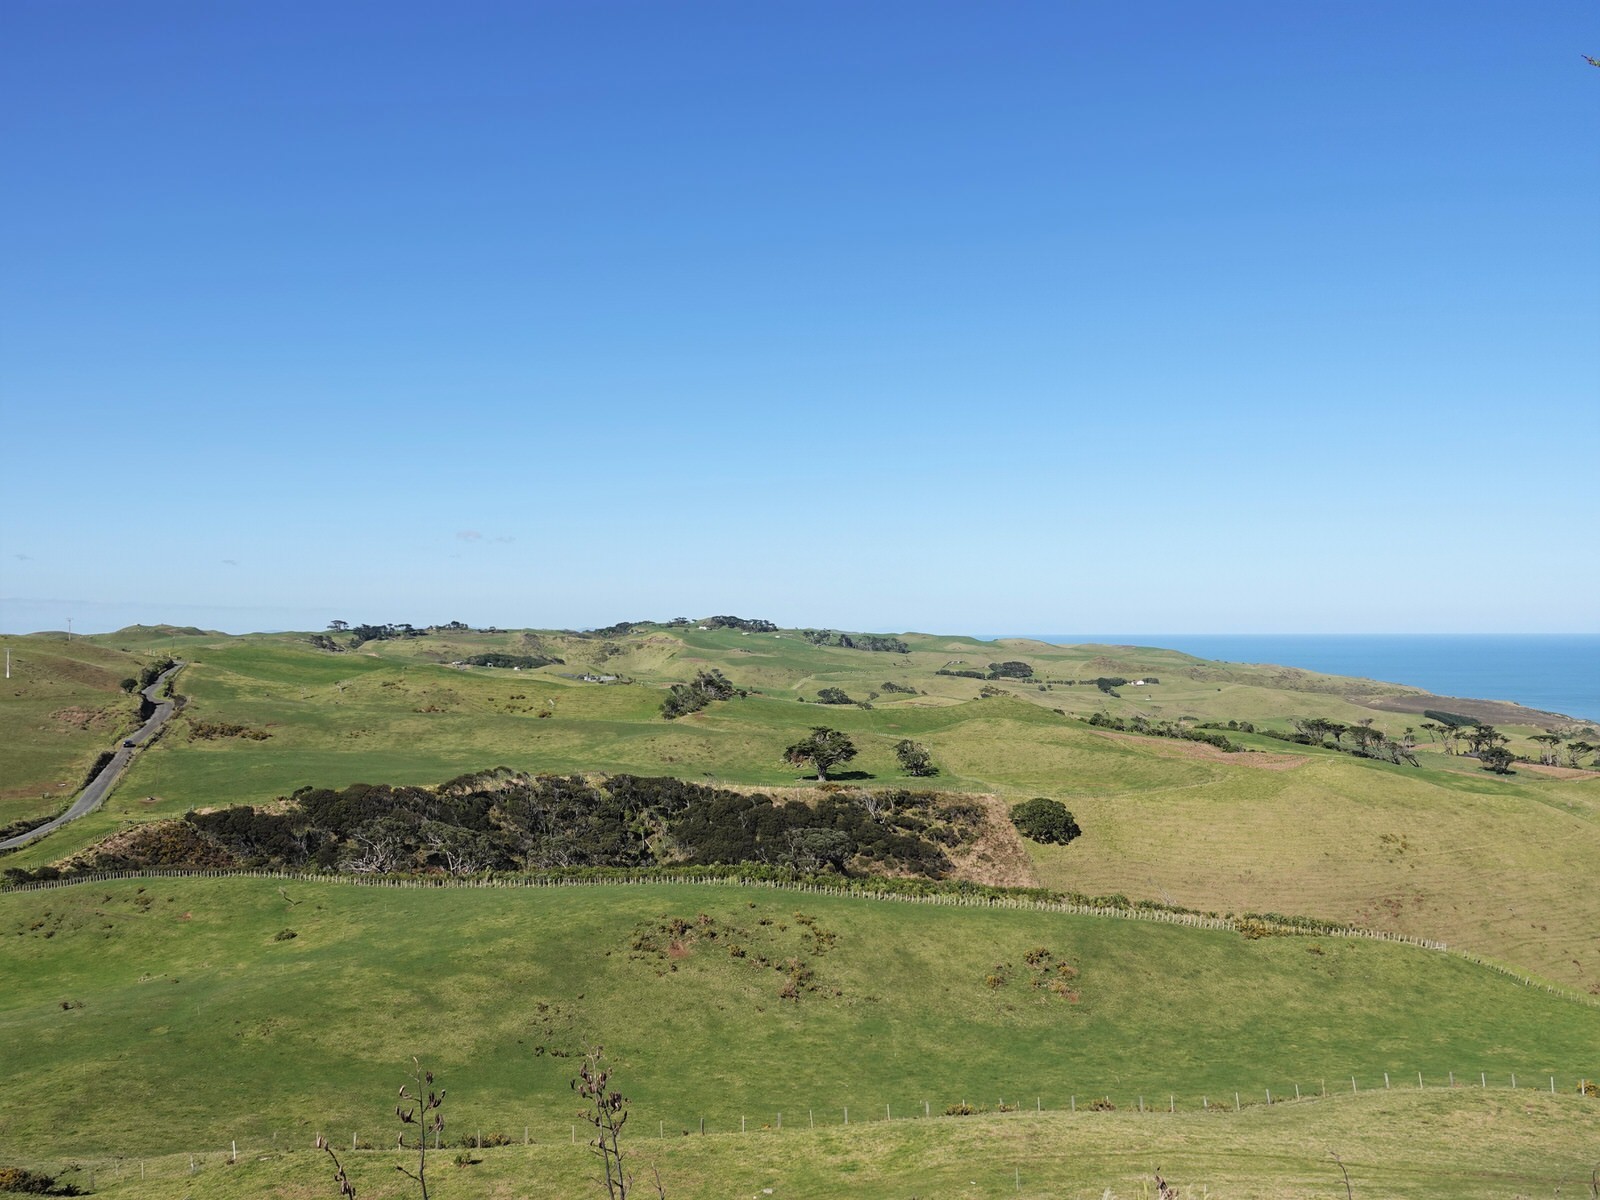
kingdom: Animalia
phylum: Chordata
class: Aves
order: Galliformes
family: Phasianidae
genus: Phasianus
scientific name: Phasianus colchicus
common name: Common pheasant
